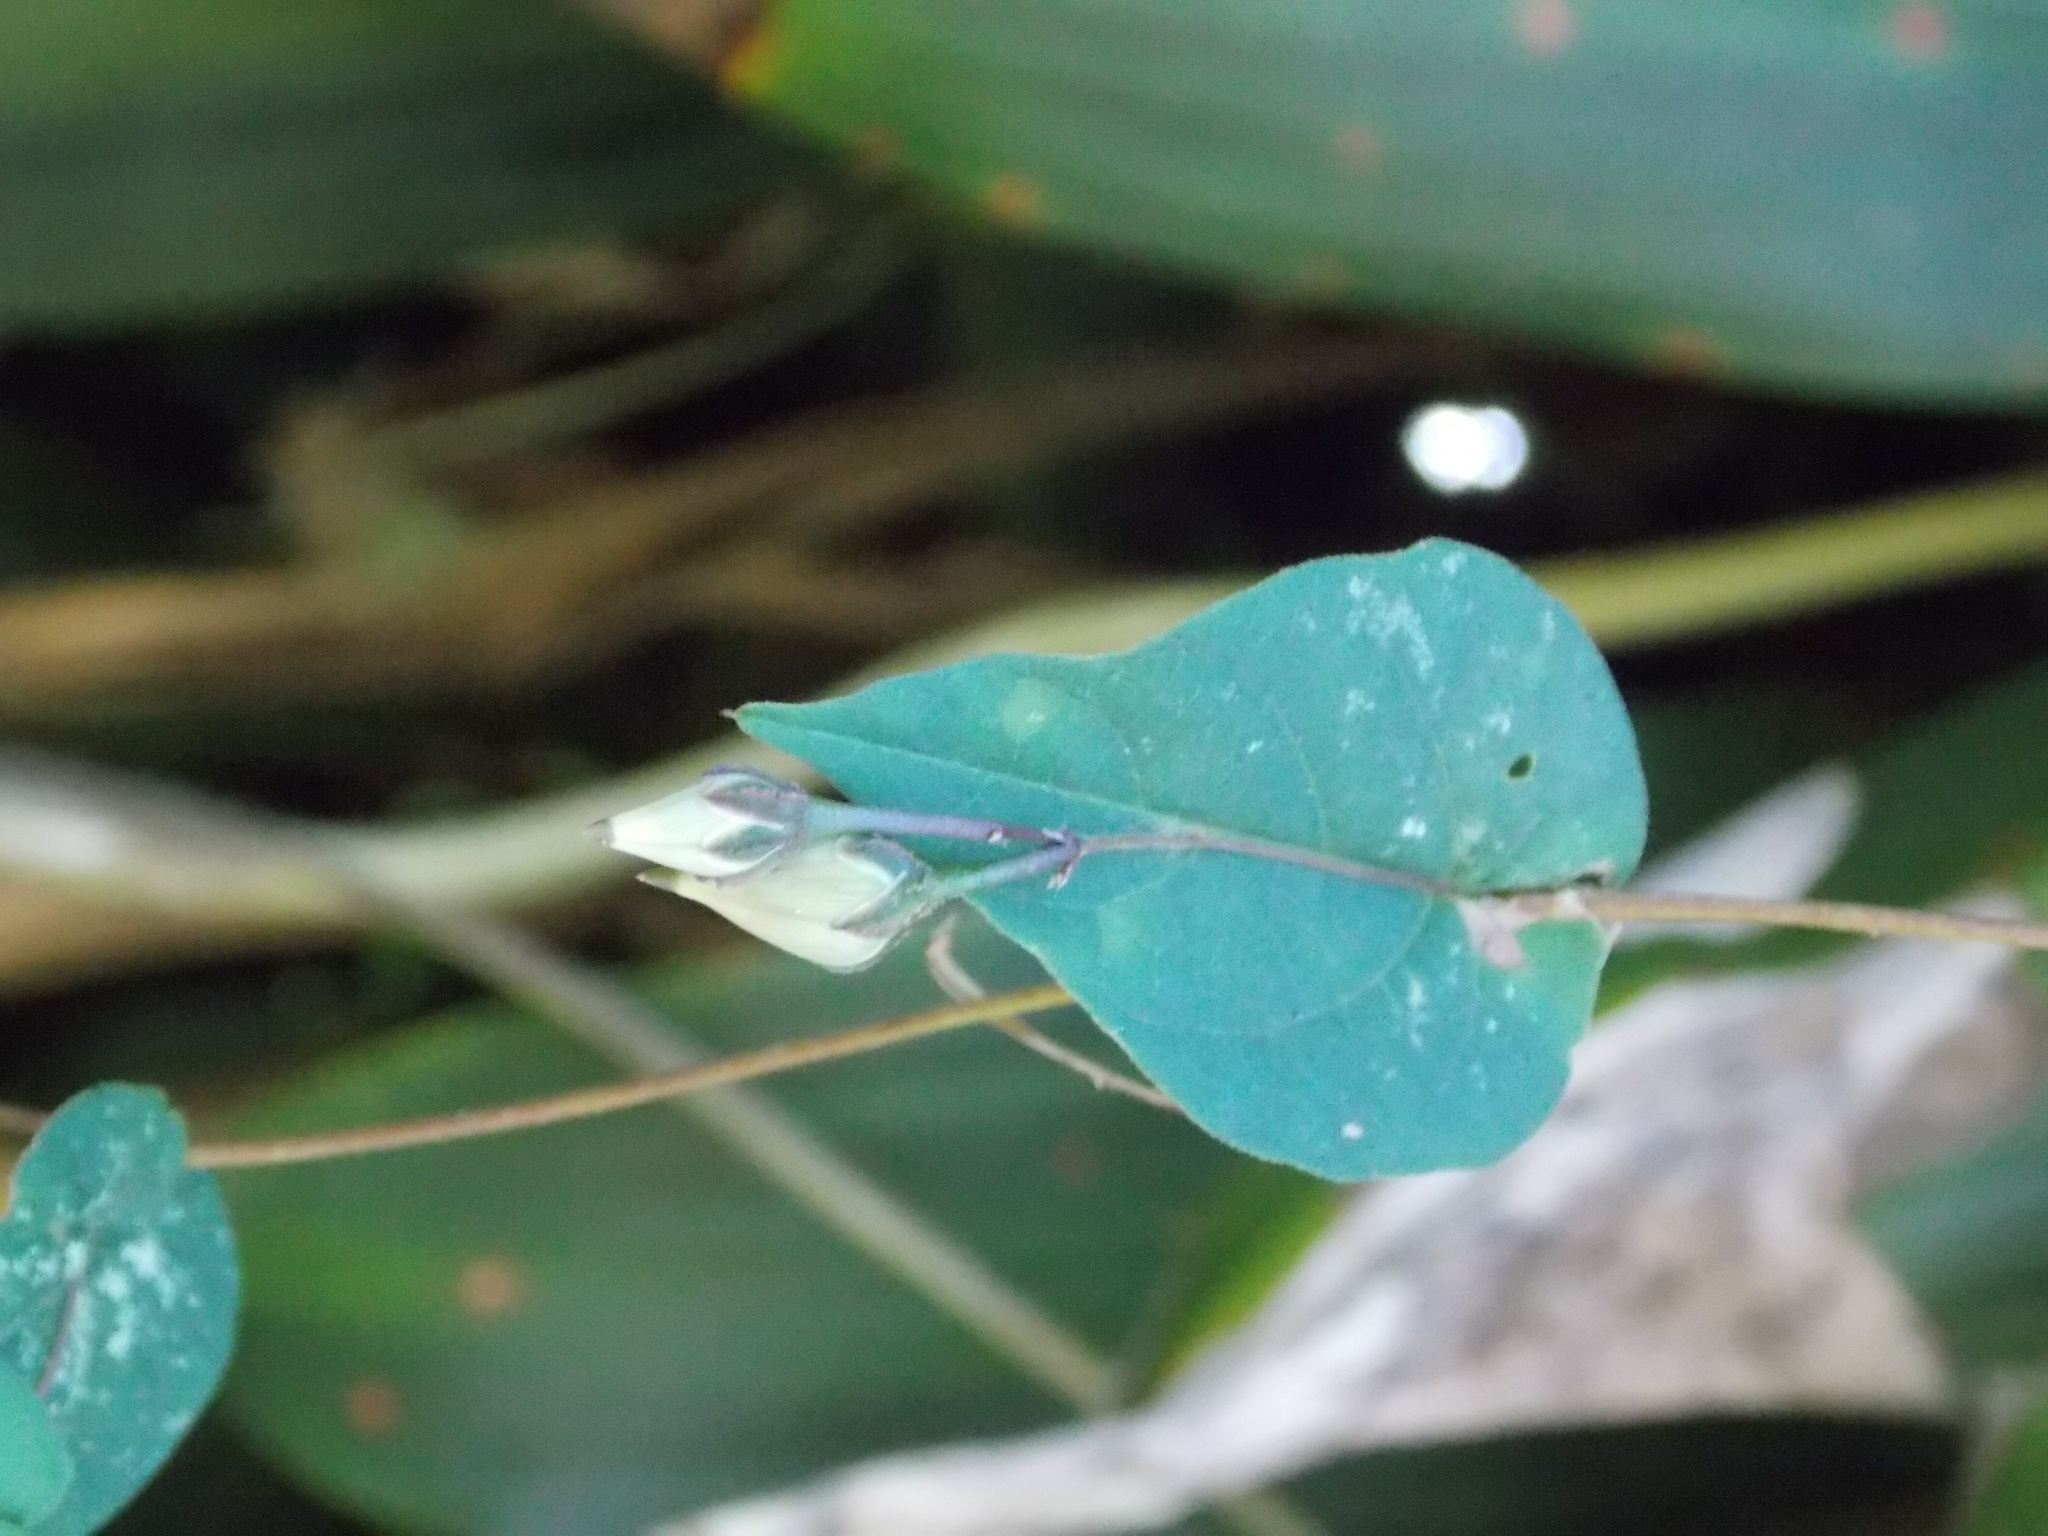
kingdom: Plantae
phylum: Tracheophyta
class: Magnoliopsida
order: Solanales
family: Convolvulaceae
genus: Ipomoea
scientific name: Ipomoea aristolochiifolia
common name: Aristolochia-leaved morning-glory
